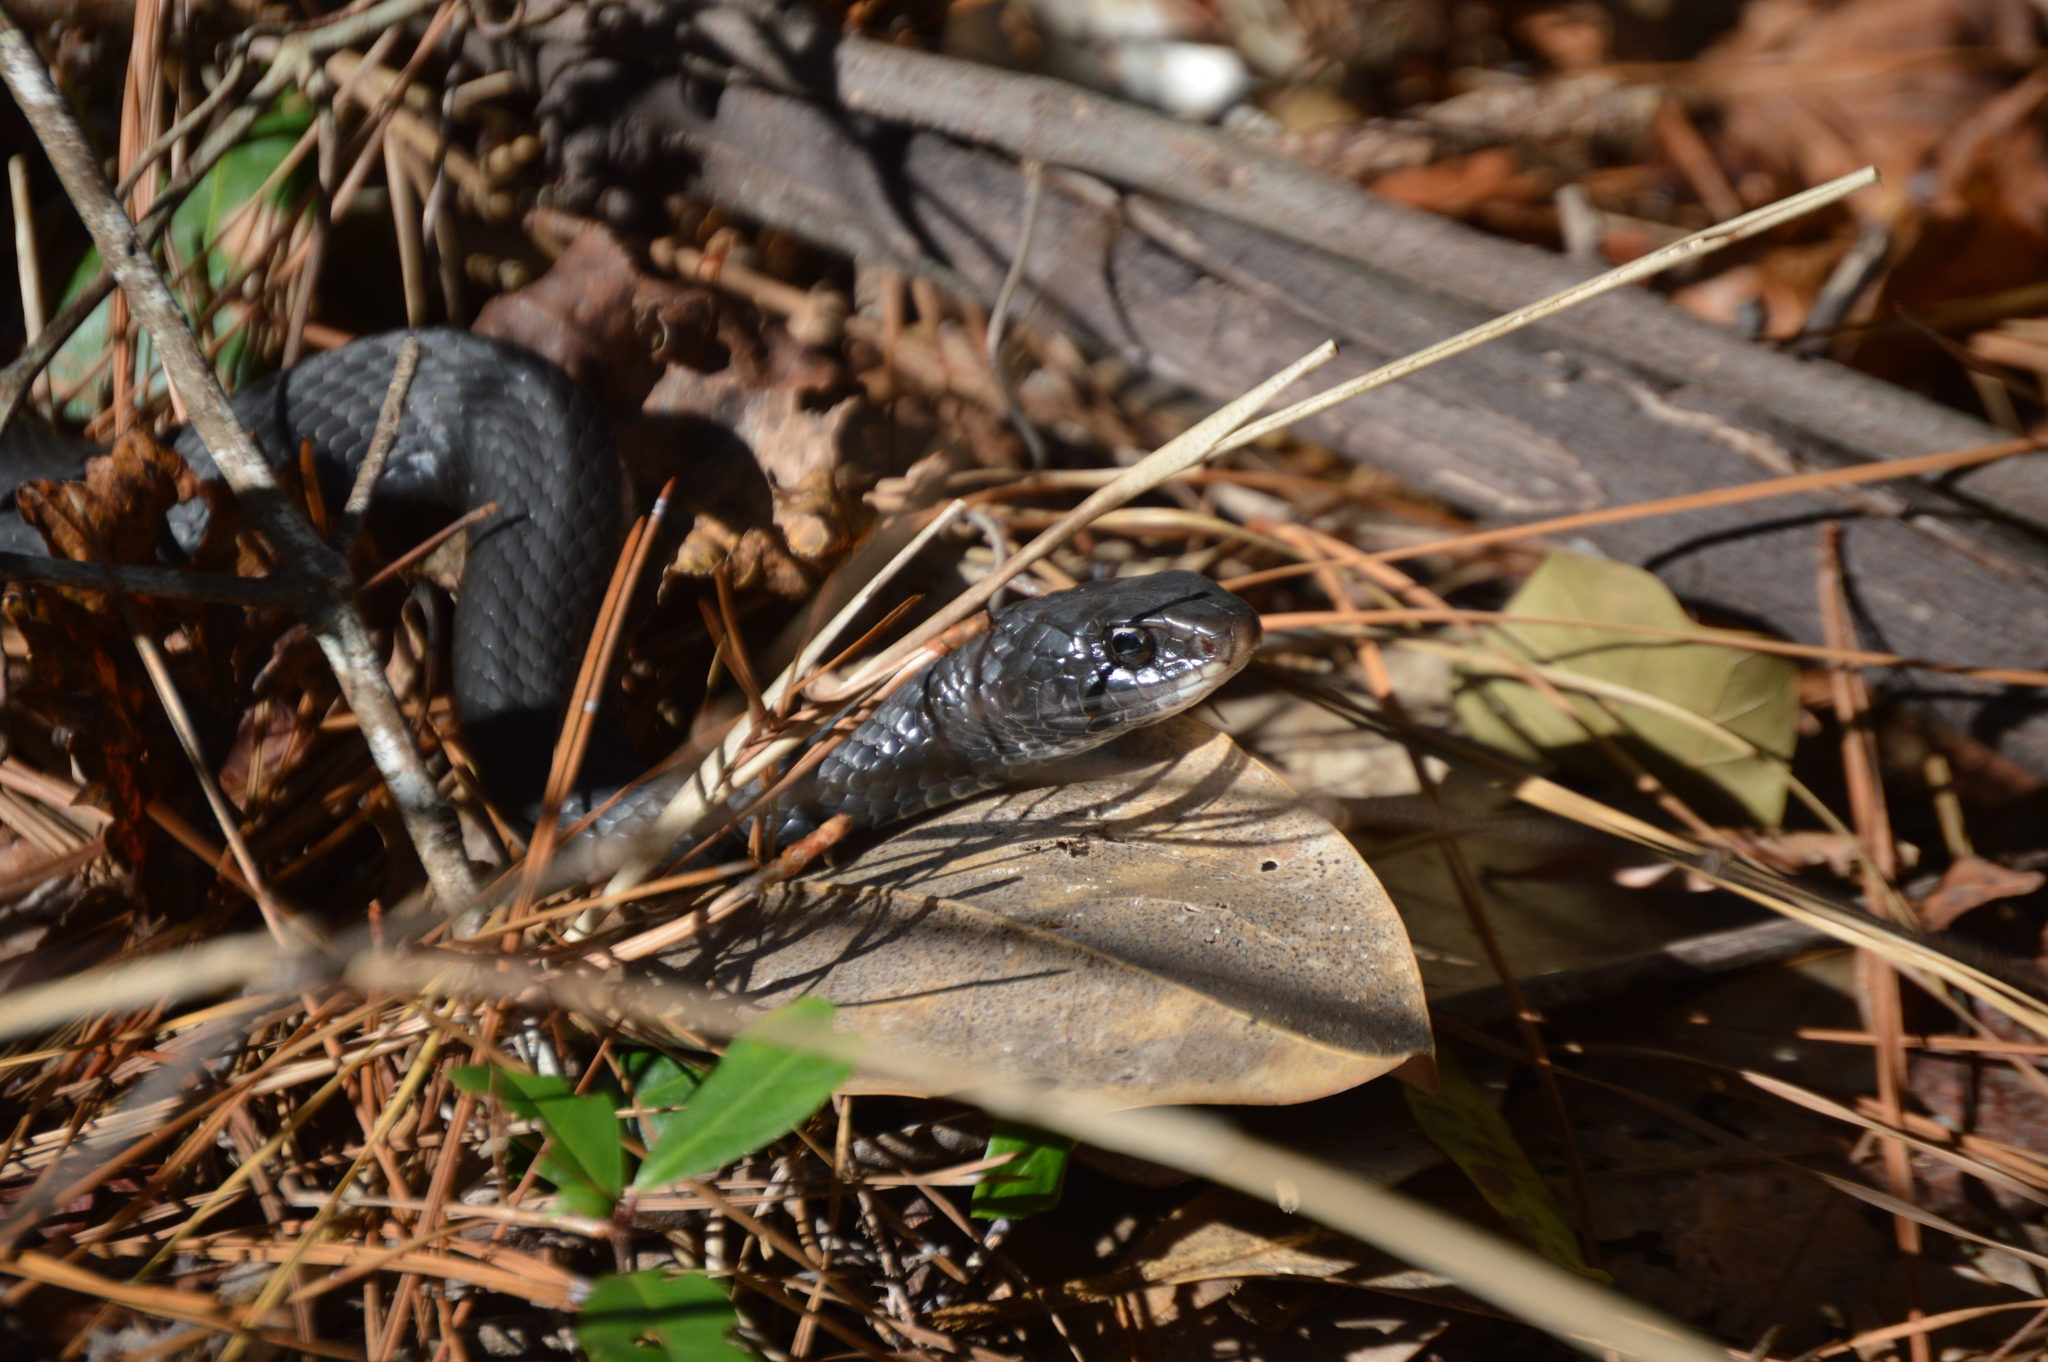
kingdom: Animalia
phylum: Chordata
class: Squamata
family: Colubridae
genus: Coluber
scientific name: Coluber constrictor
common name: Eastern racer
